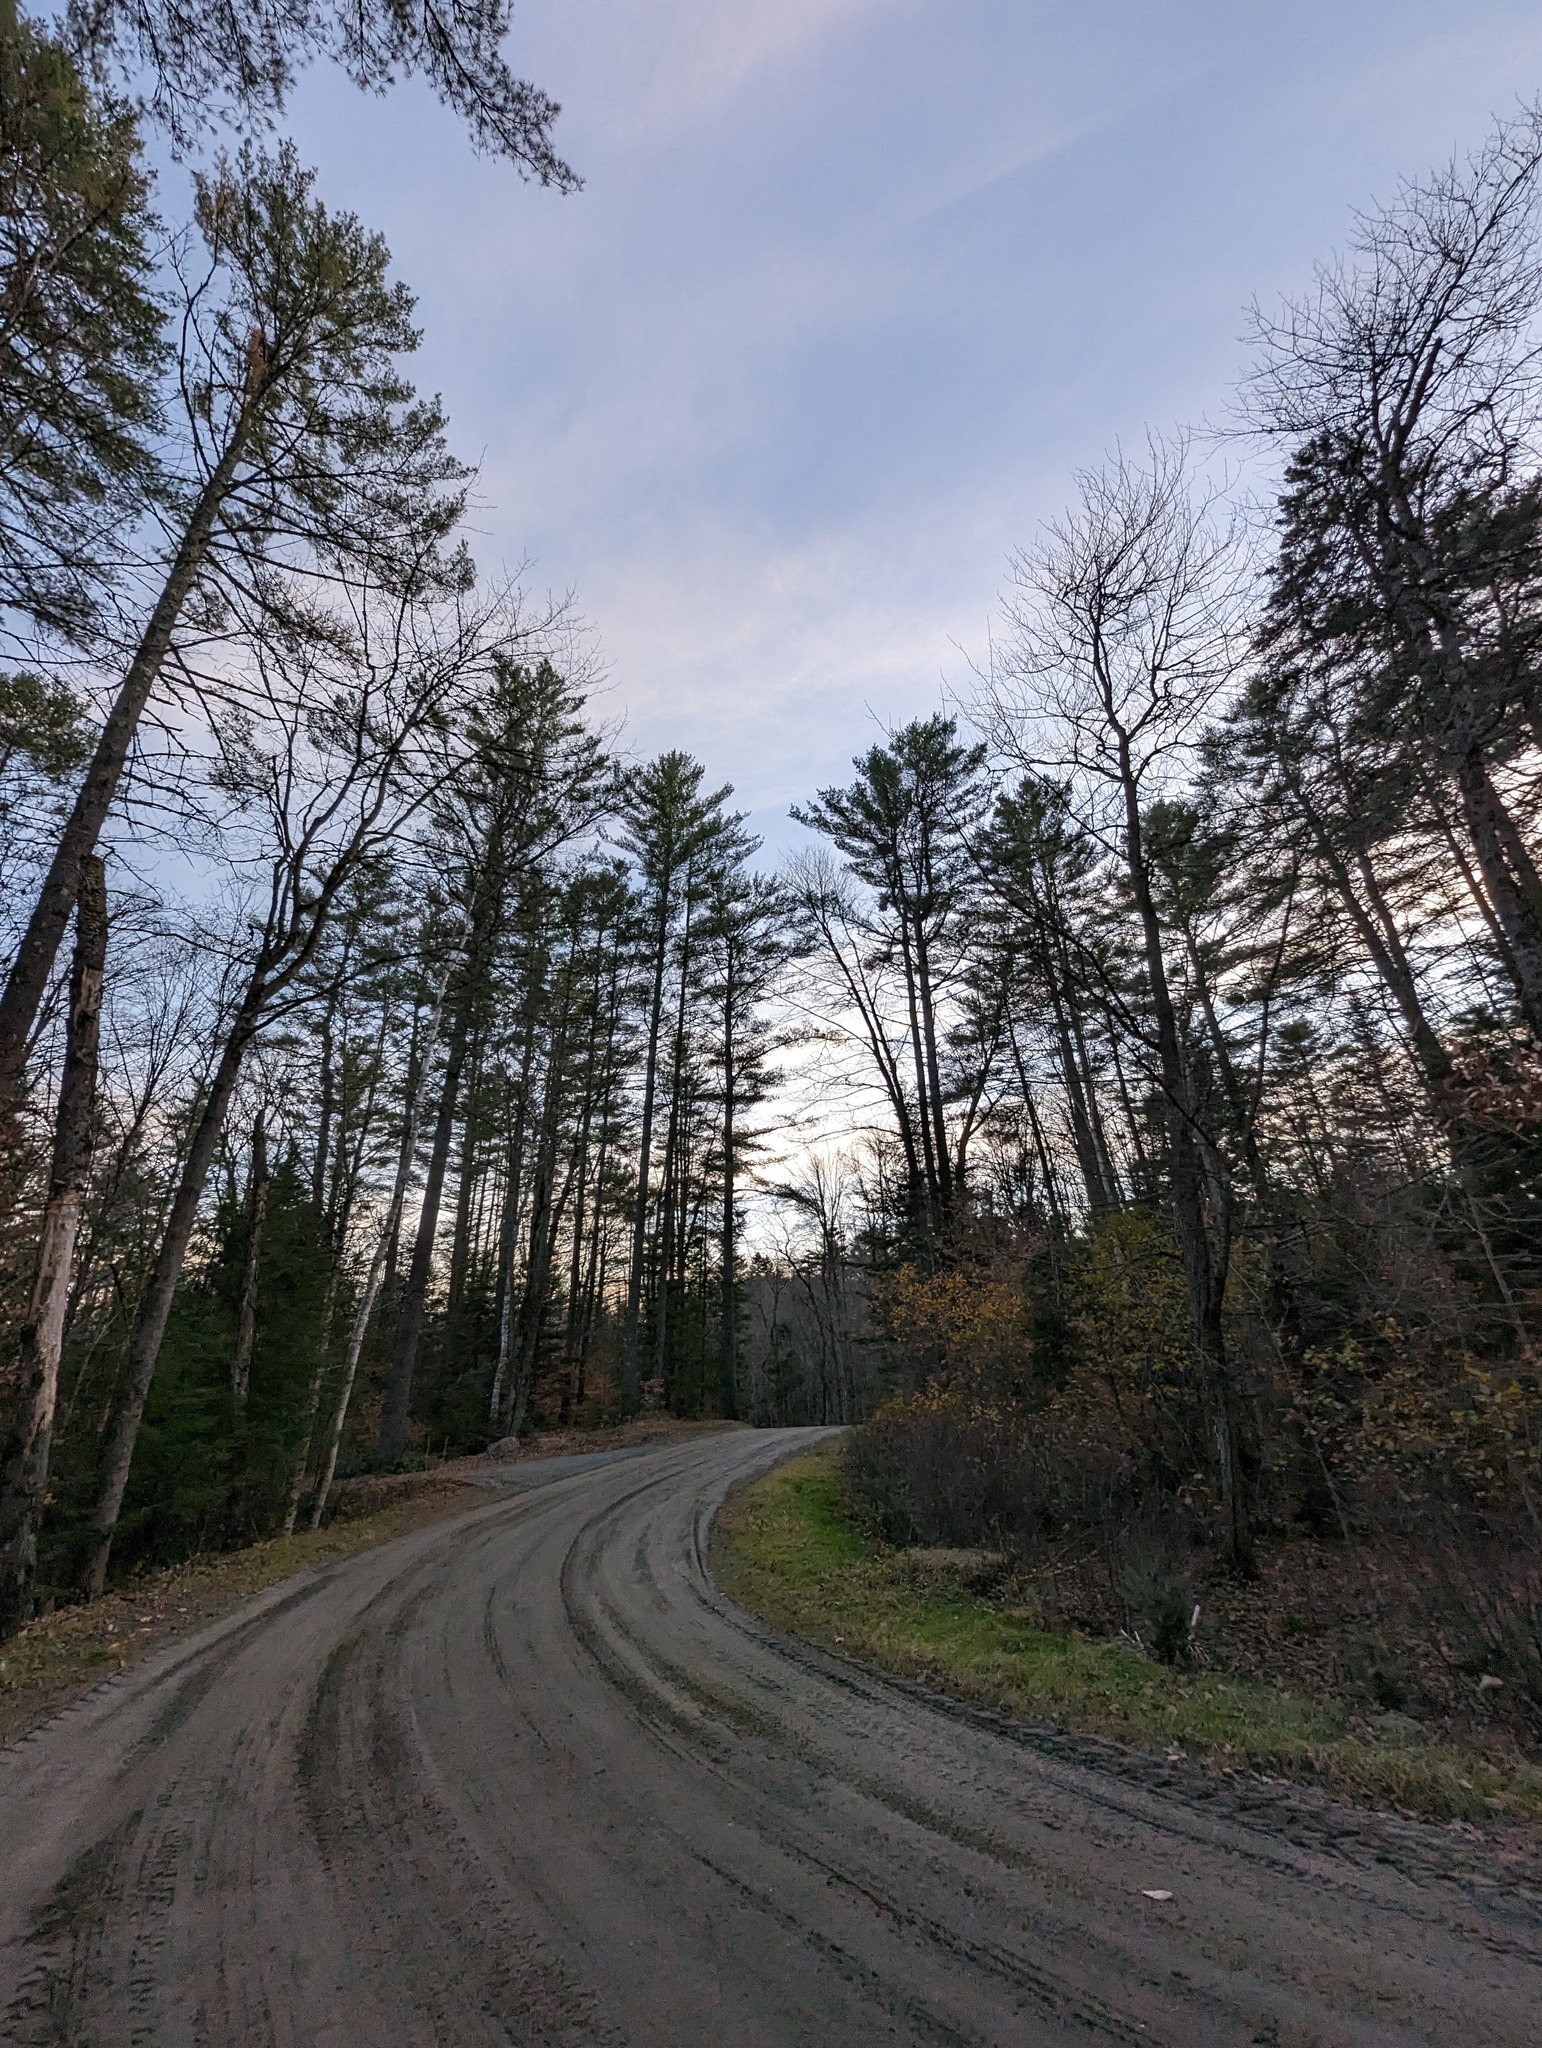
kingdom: Plantae
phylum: Tracheophyta
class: Pinopsida
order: Pinales
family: Pinaceae
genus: Pinus
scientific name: Pinus strobus
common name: Weymouth pine
